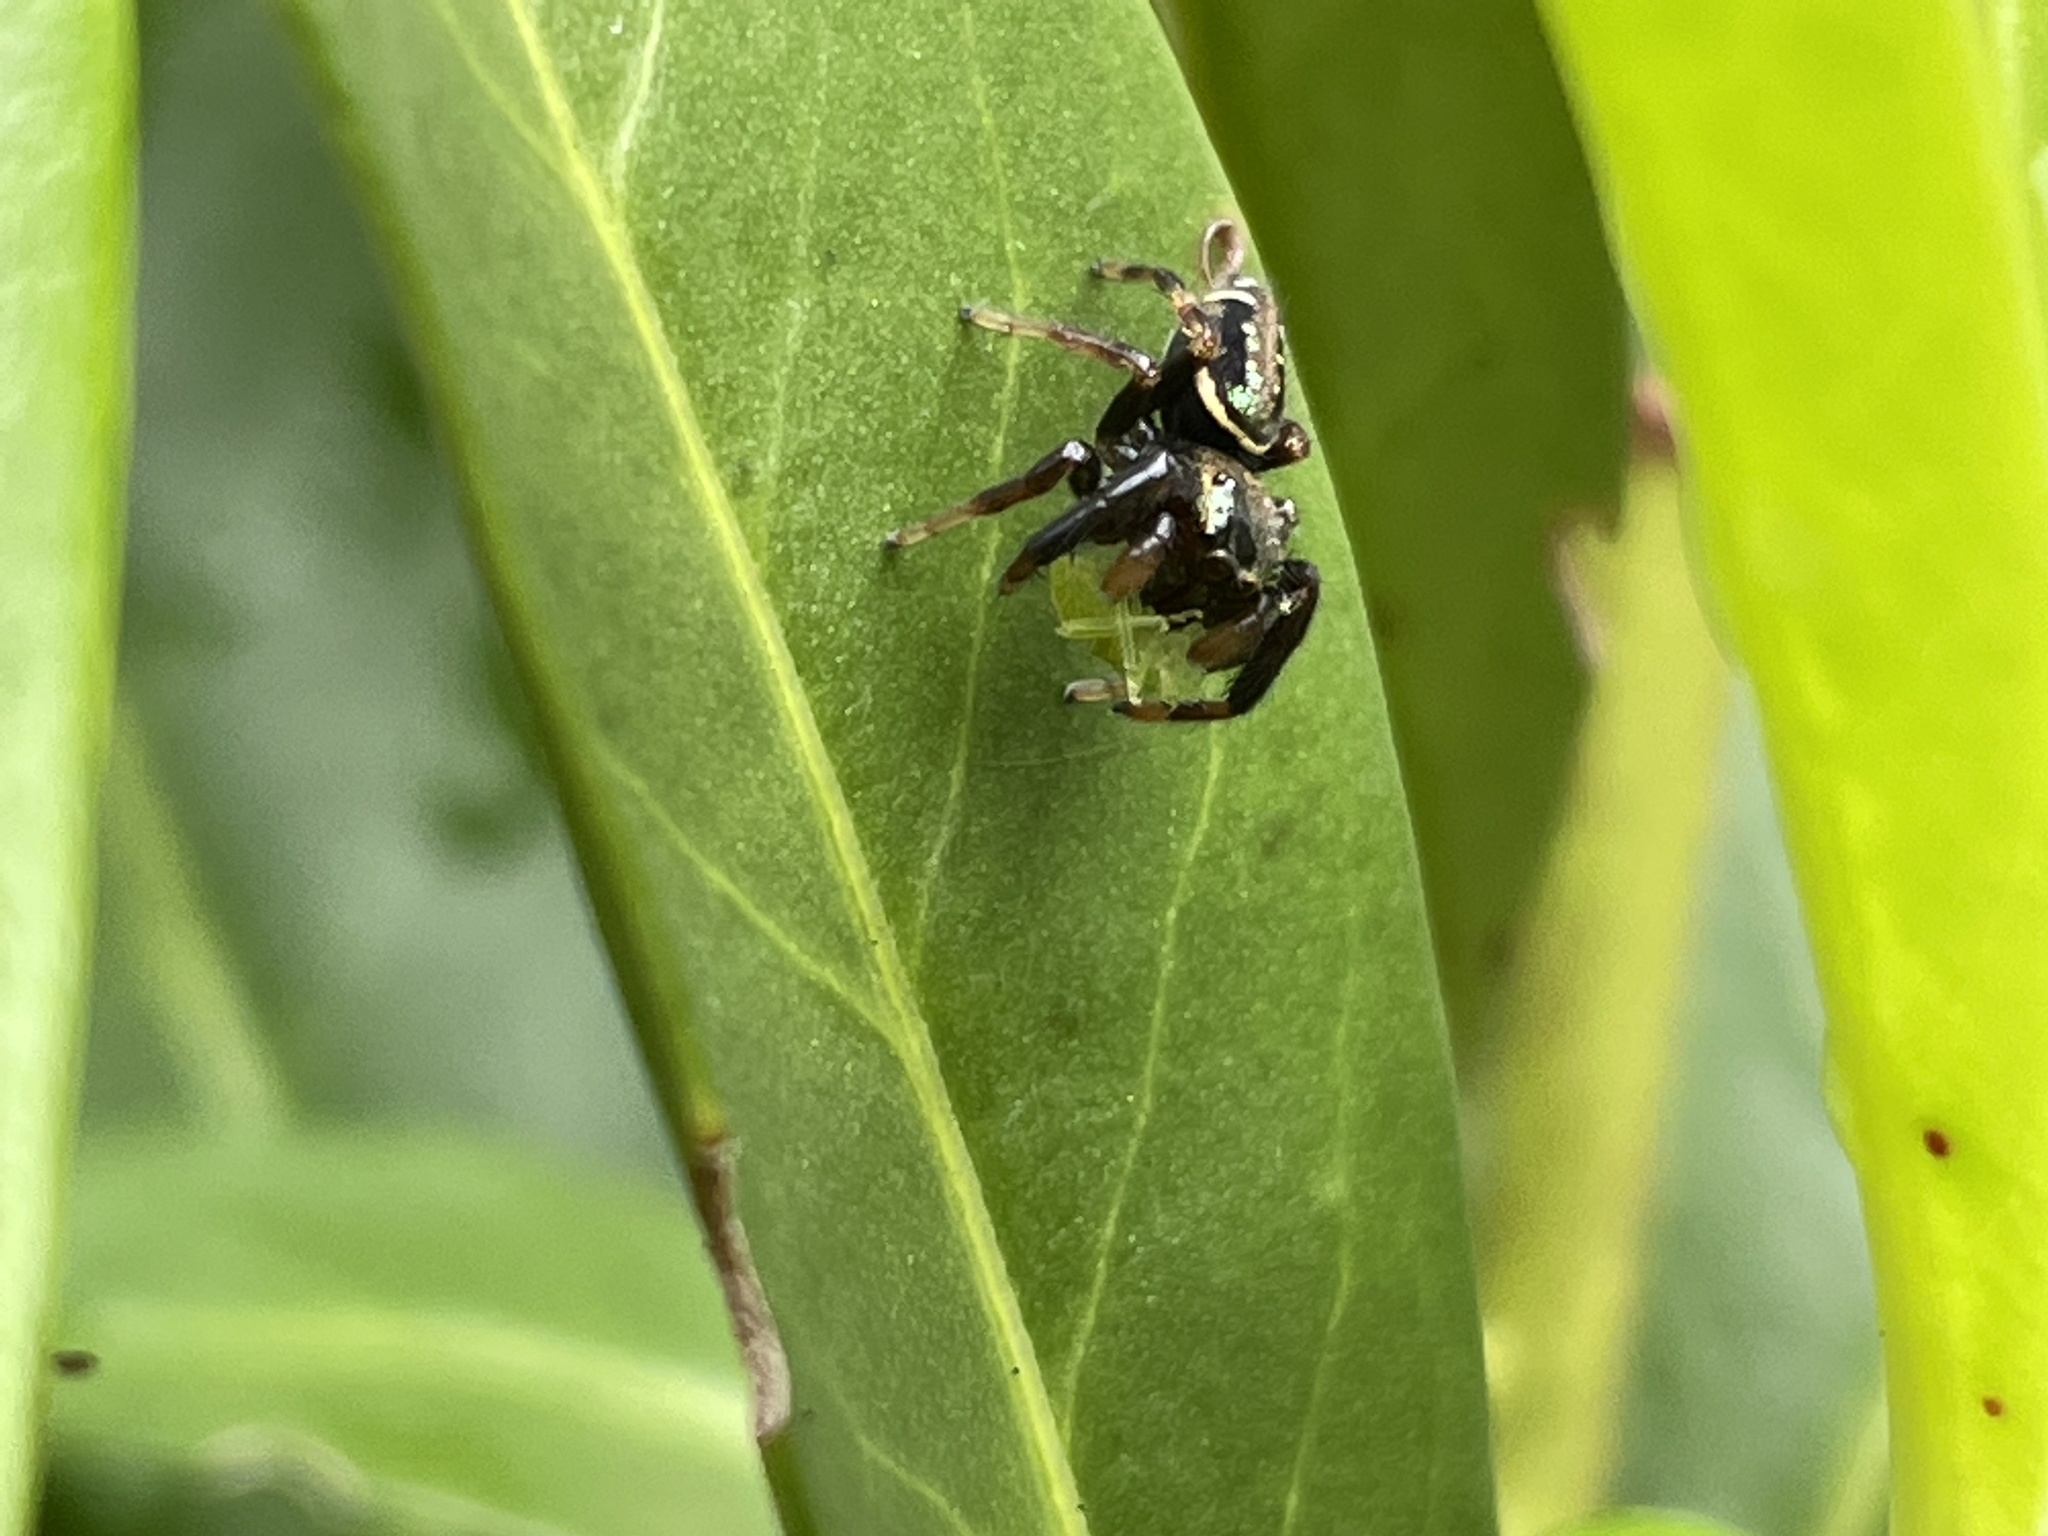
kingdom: Animalia
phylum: Arthropoda
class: Arachnida
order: Araneae
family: Salticidae
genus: Paraphidippus
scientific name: Paraphidippus aurantius
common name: Jumping spiders
